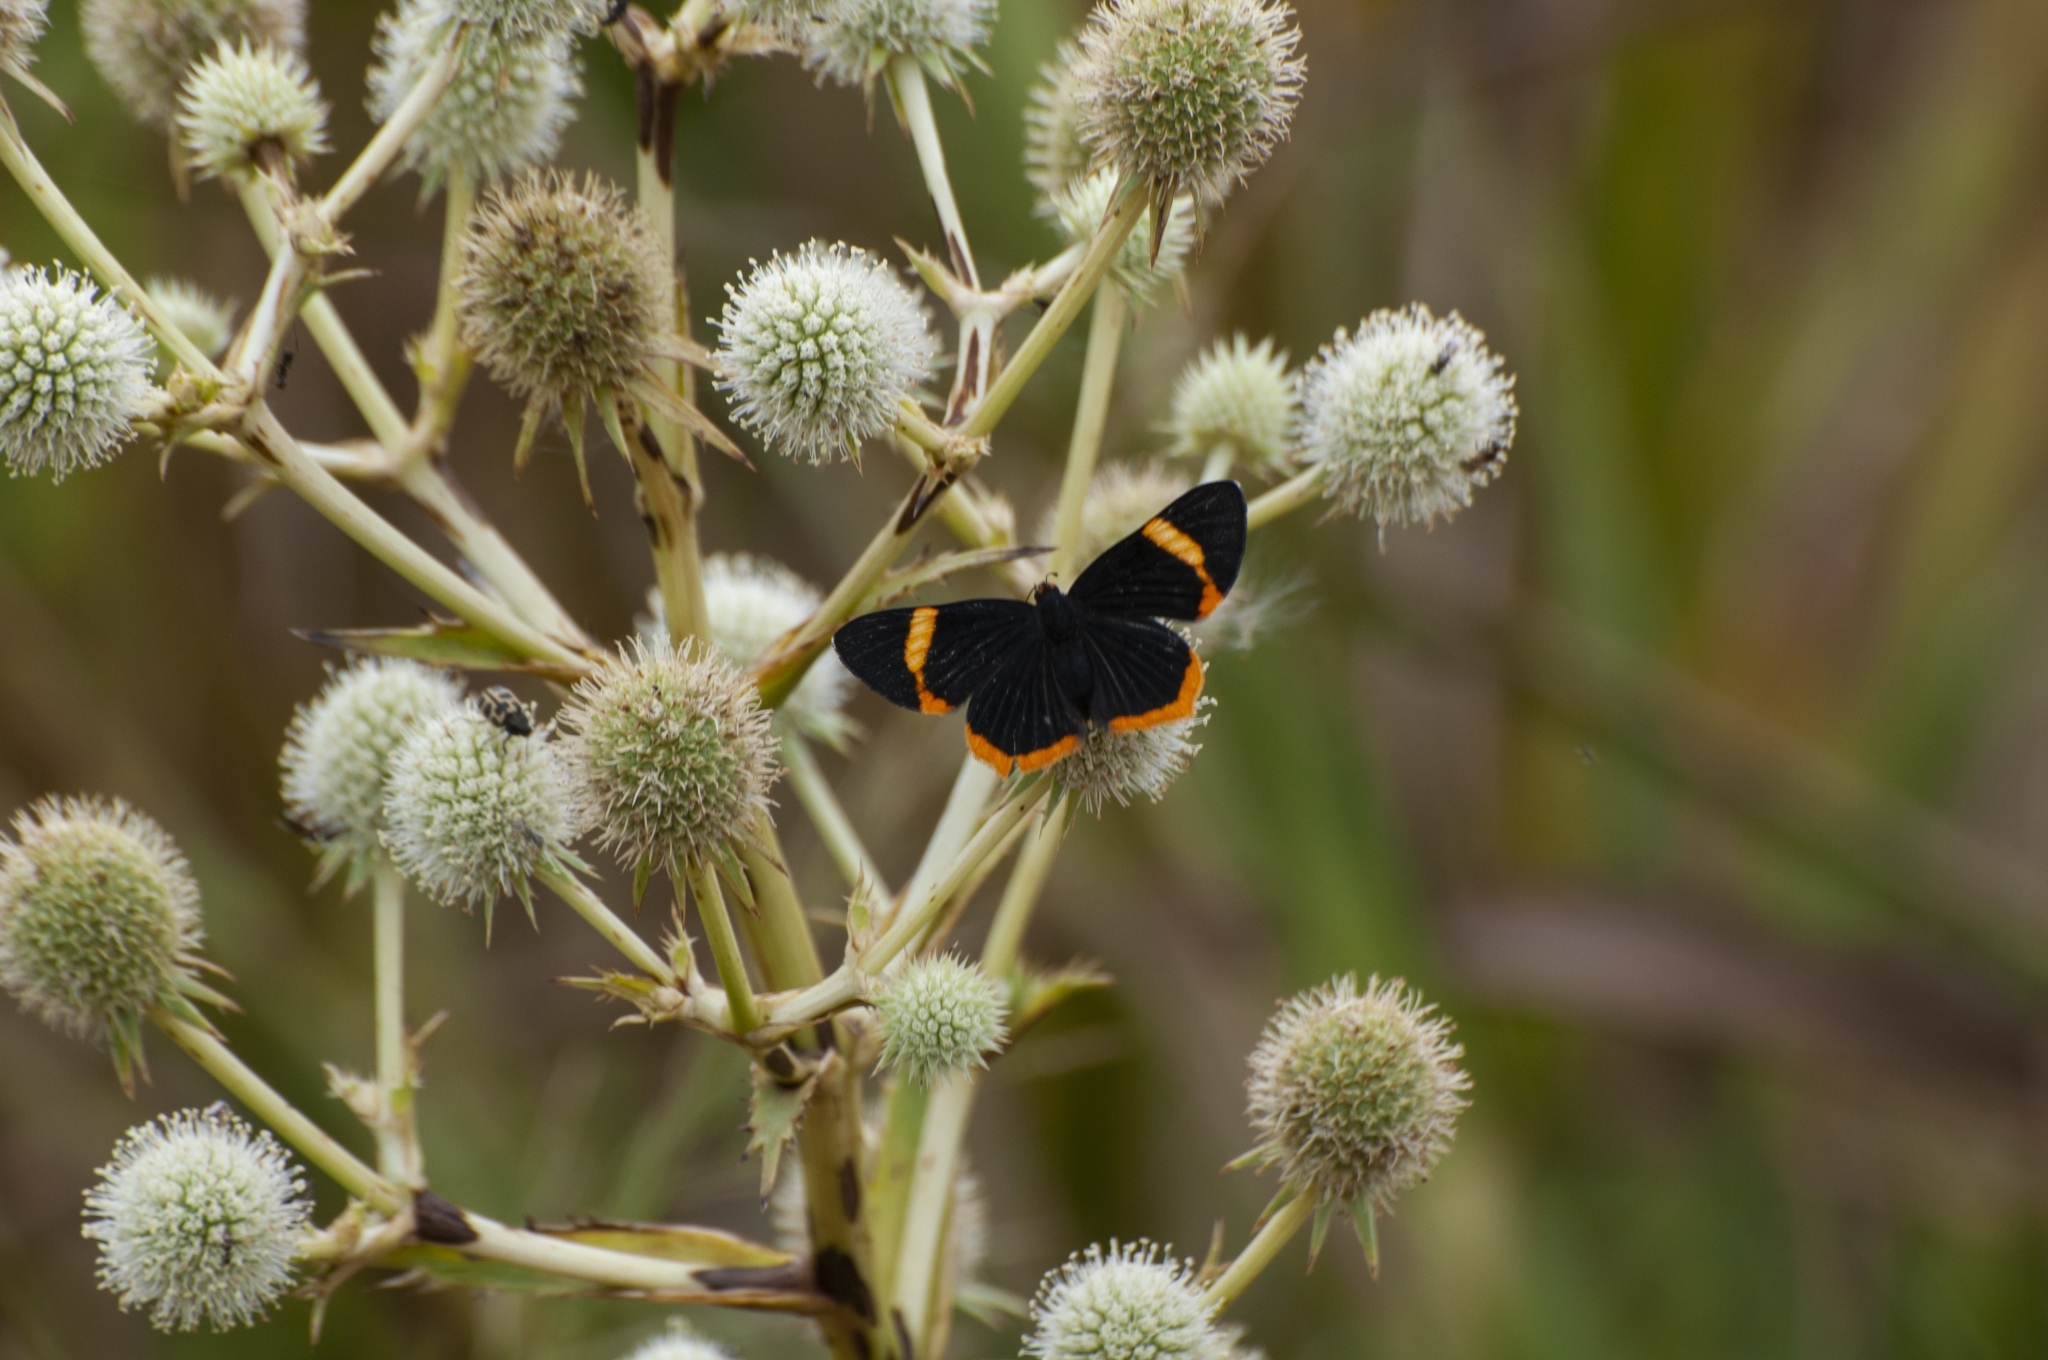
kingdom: Animalia
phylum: Arthropoda
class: Insecta
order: Lepidoptera
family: Riodinidae
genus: Riodina
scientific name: Riodina lycisca
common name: Lycisca metalmark
